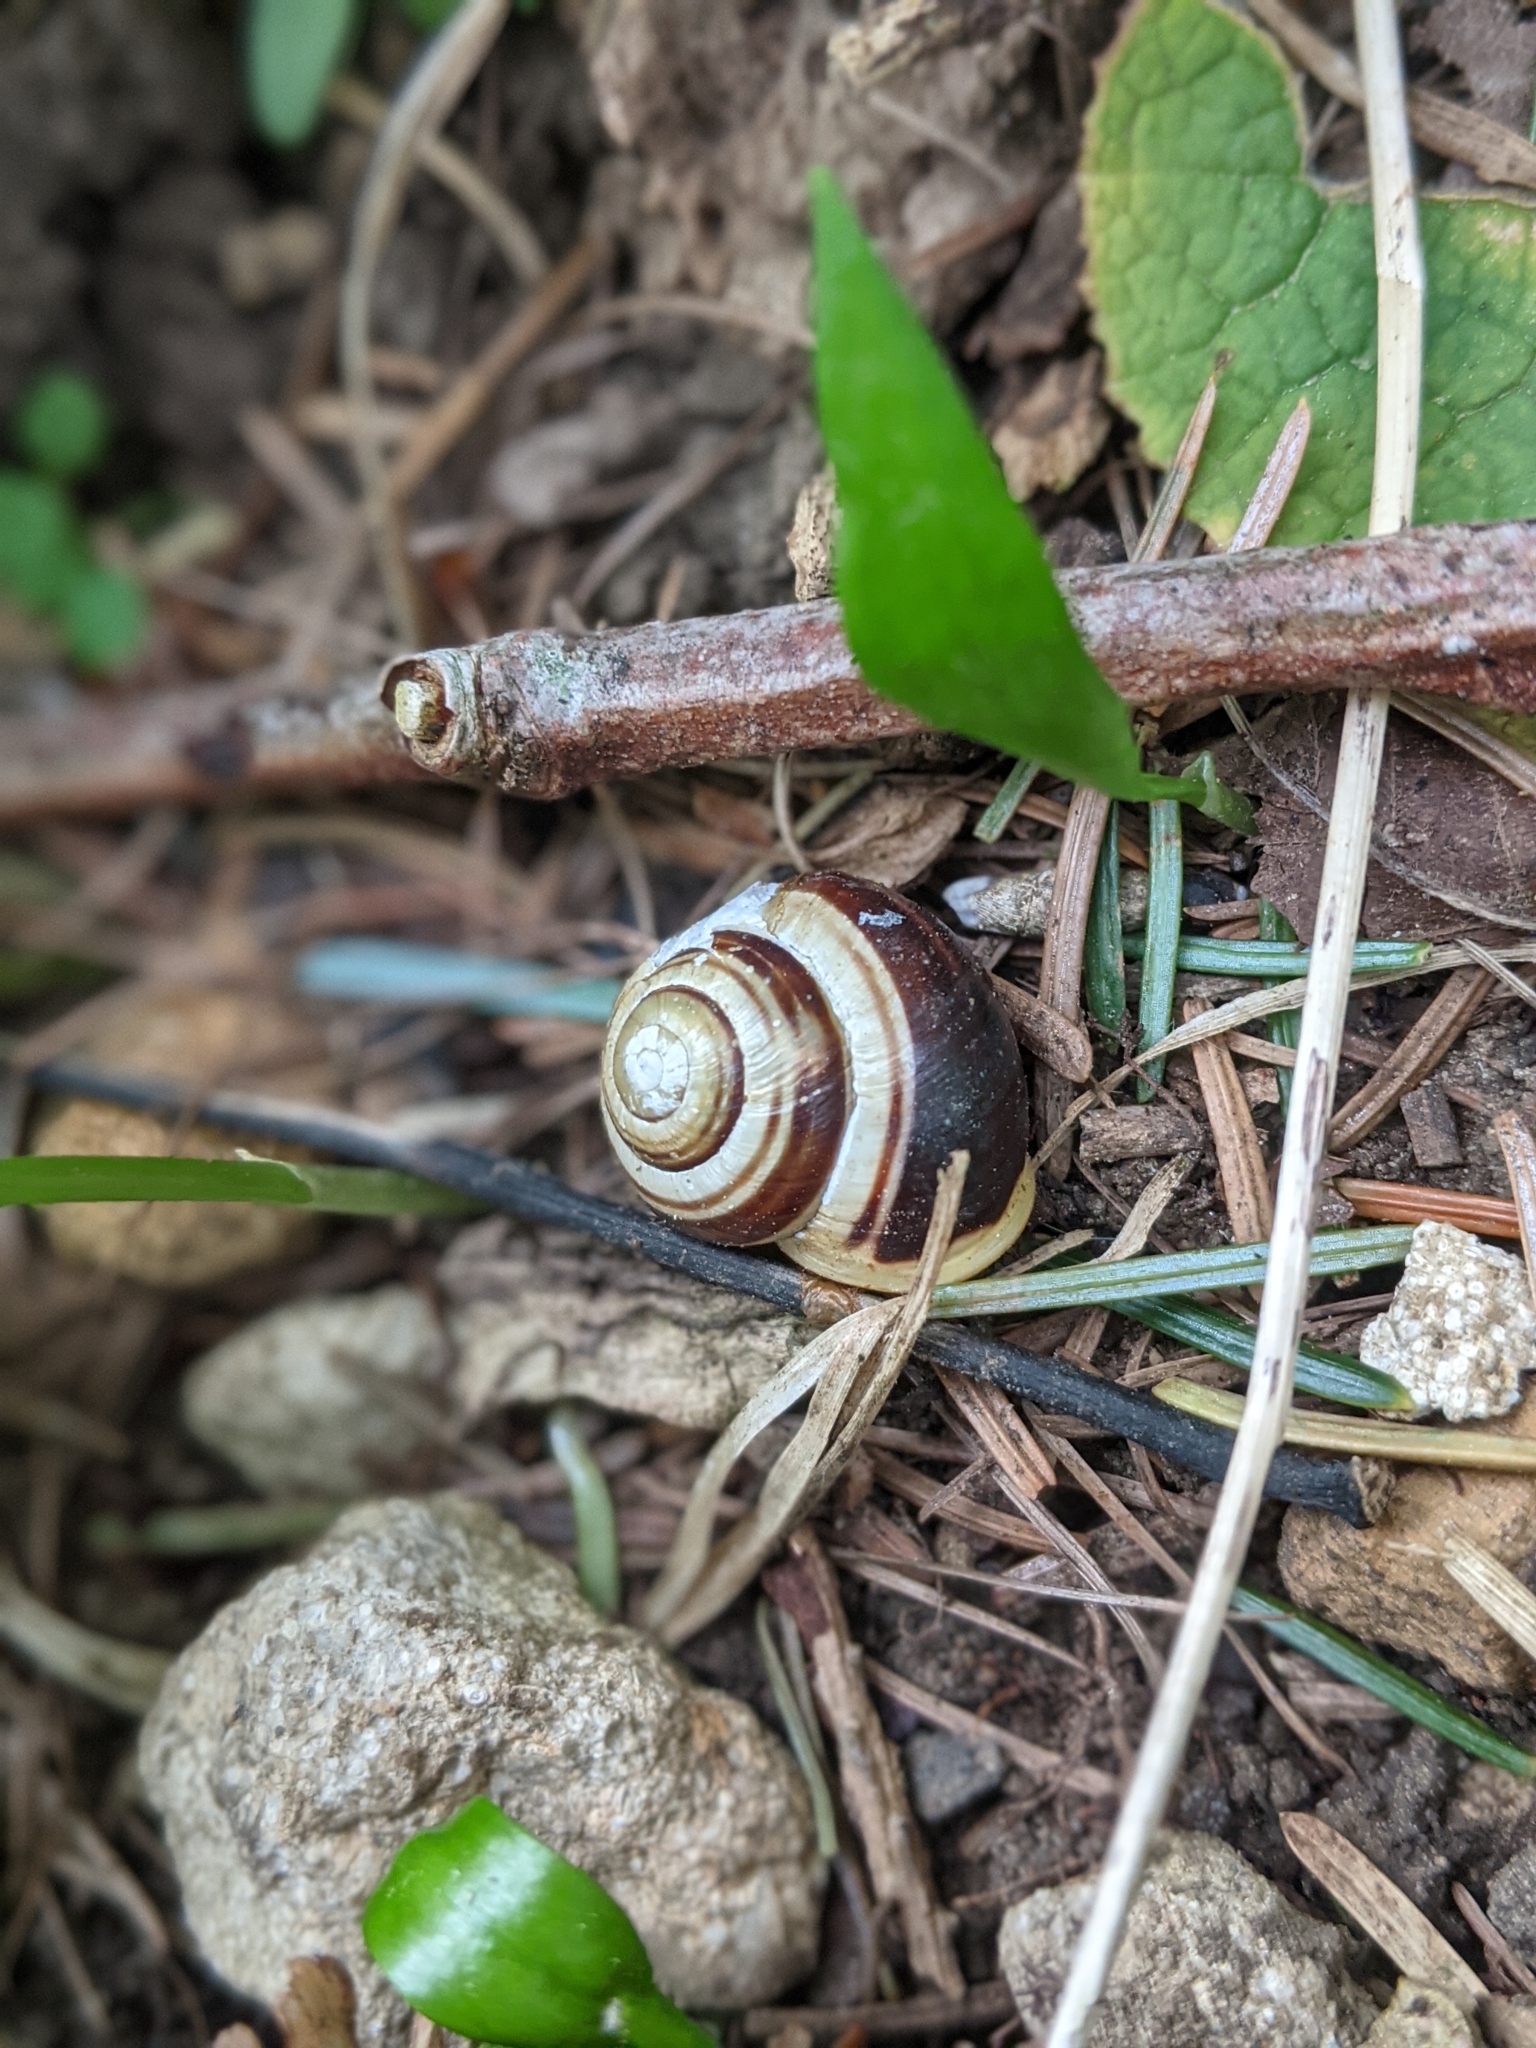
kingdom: Animalia
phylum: Mollusca
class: Gastropoda
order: Stylommatophora
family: Helicidae
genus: Cepaea
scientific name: Cepaea hortensis
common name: White-lip gardensnail
